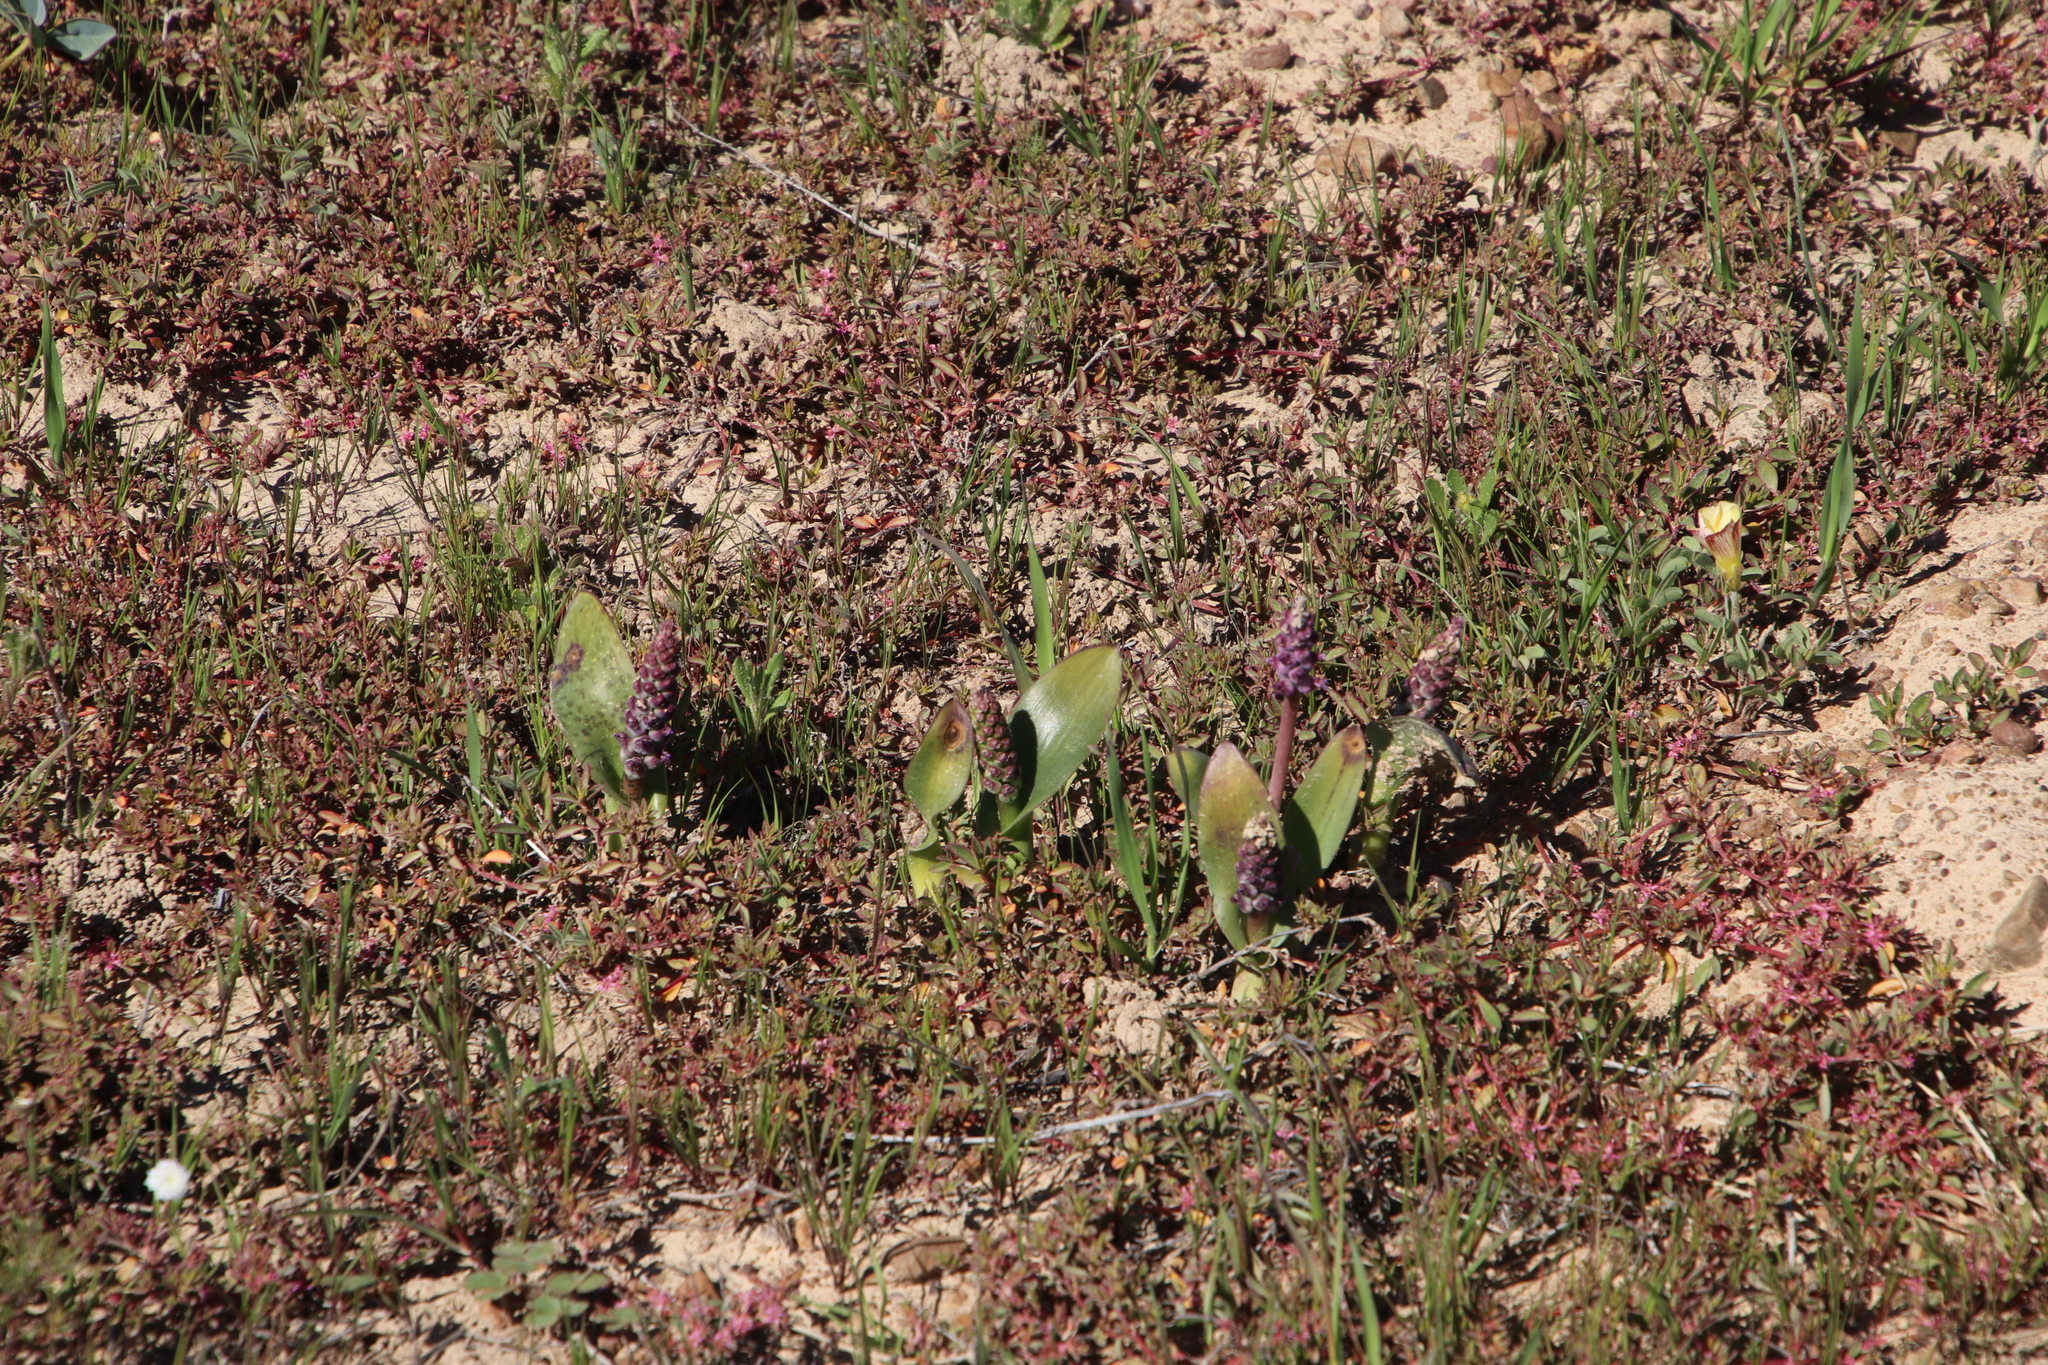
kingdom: Plantae
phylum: Tracheophyta
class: Liliopsida
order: Asparagales
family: Asparagaceae
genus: Lachenalia
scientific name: Lachenalia elegans
